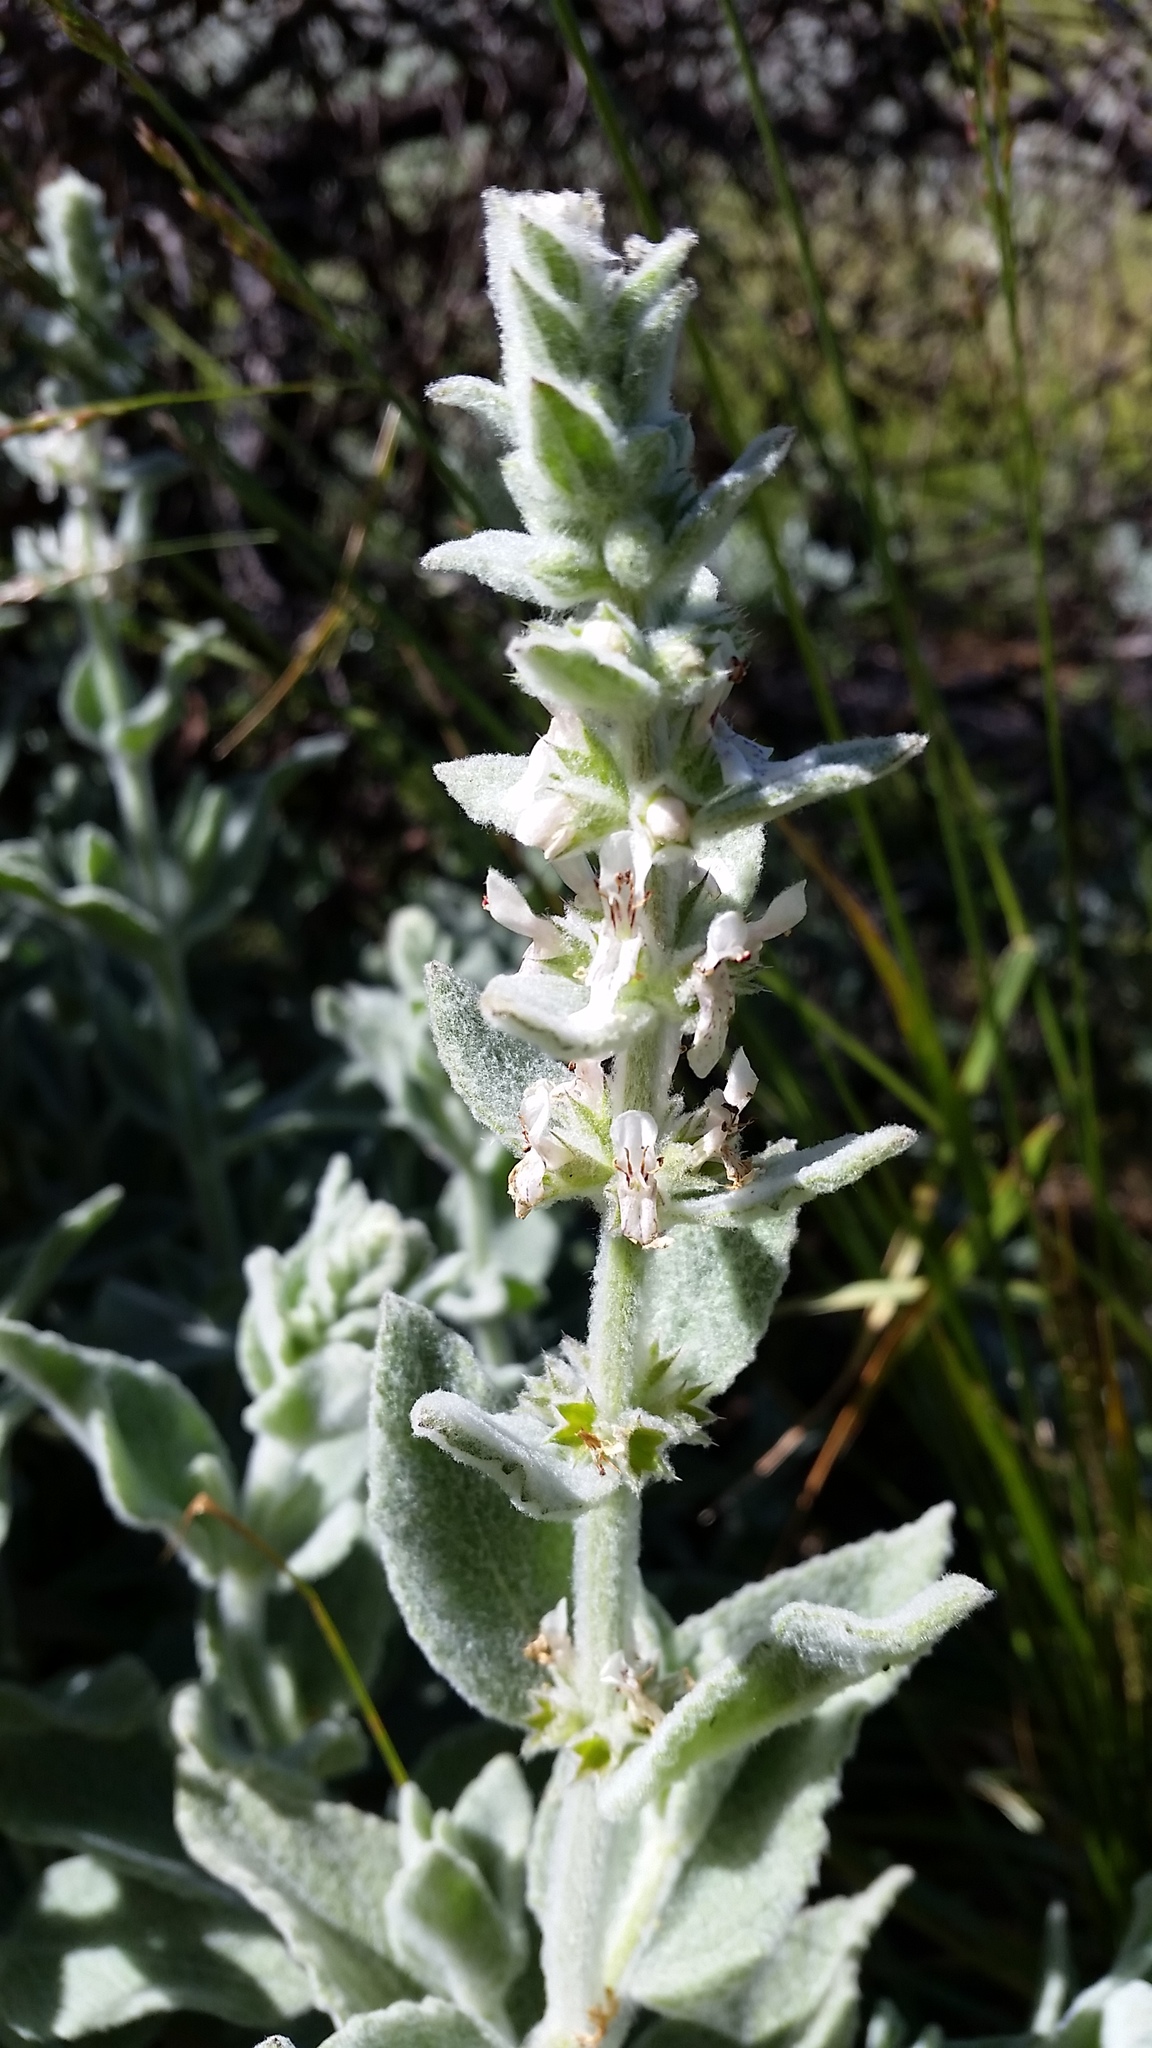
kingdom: Plantae
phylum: Tracheophyta
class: Magnoliopsida
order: Lamiales
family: Lamiaceae
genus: Stachys
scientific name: Stachys albens
